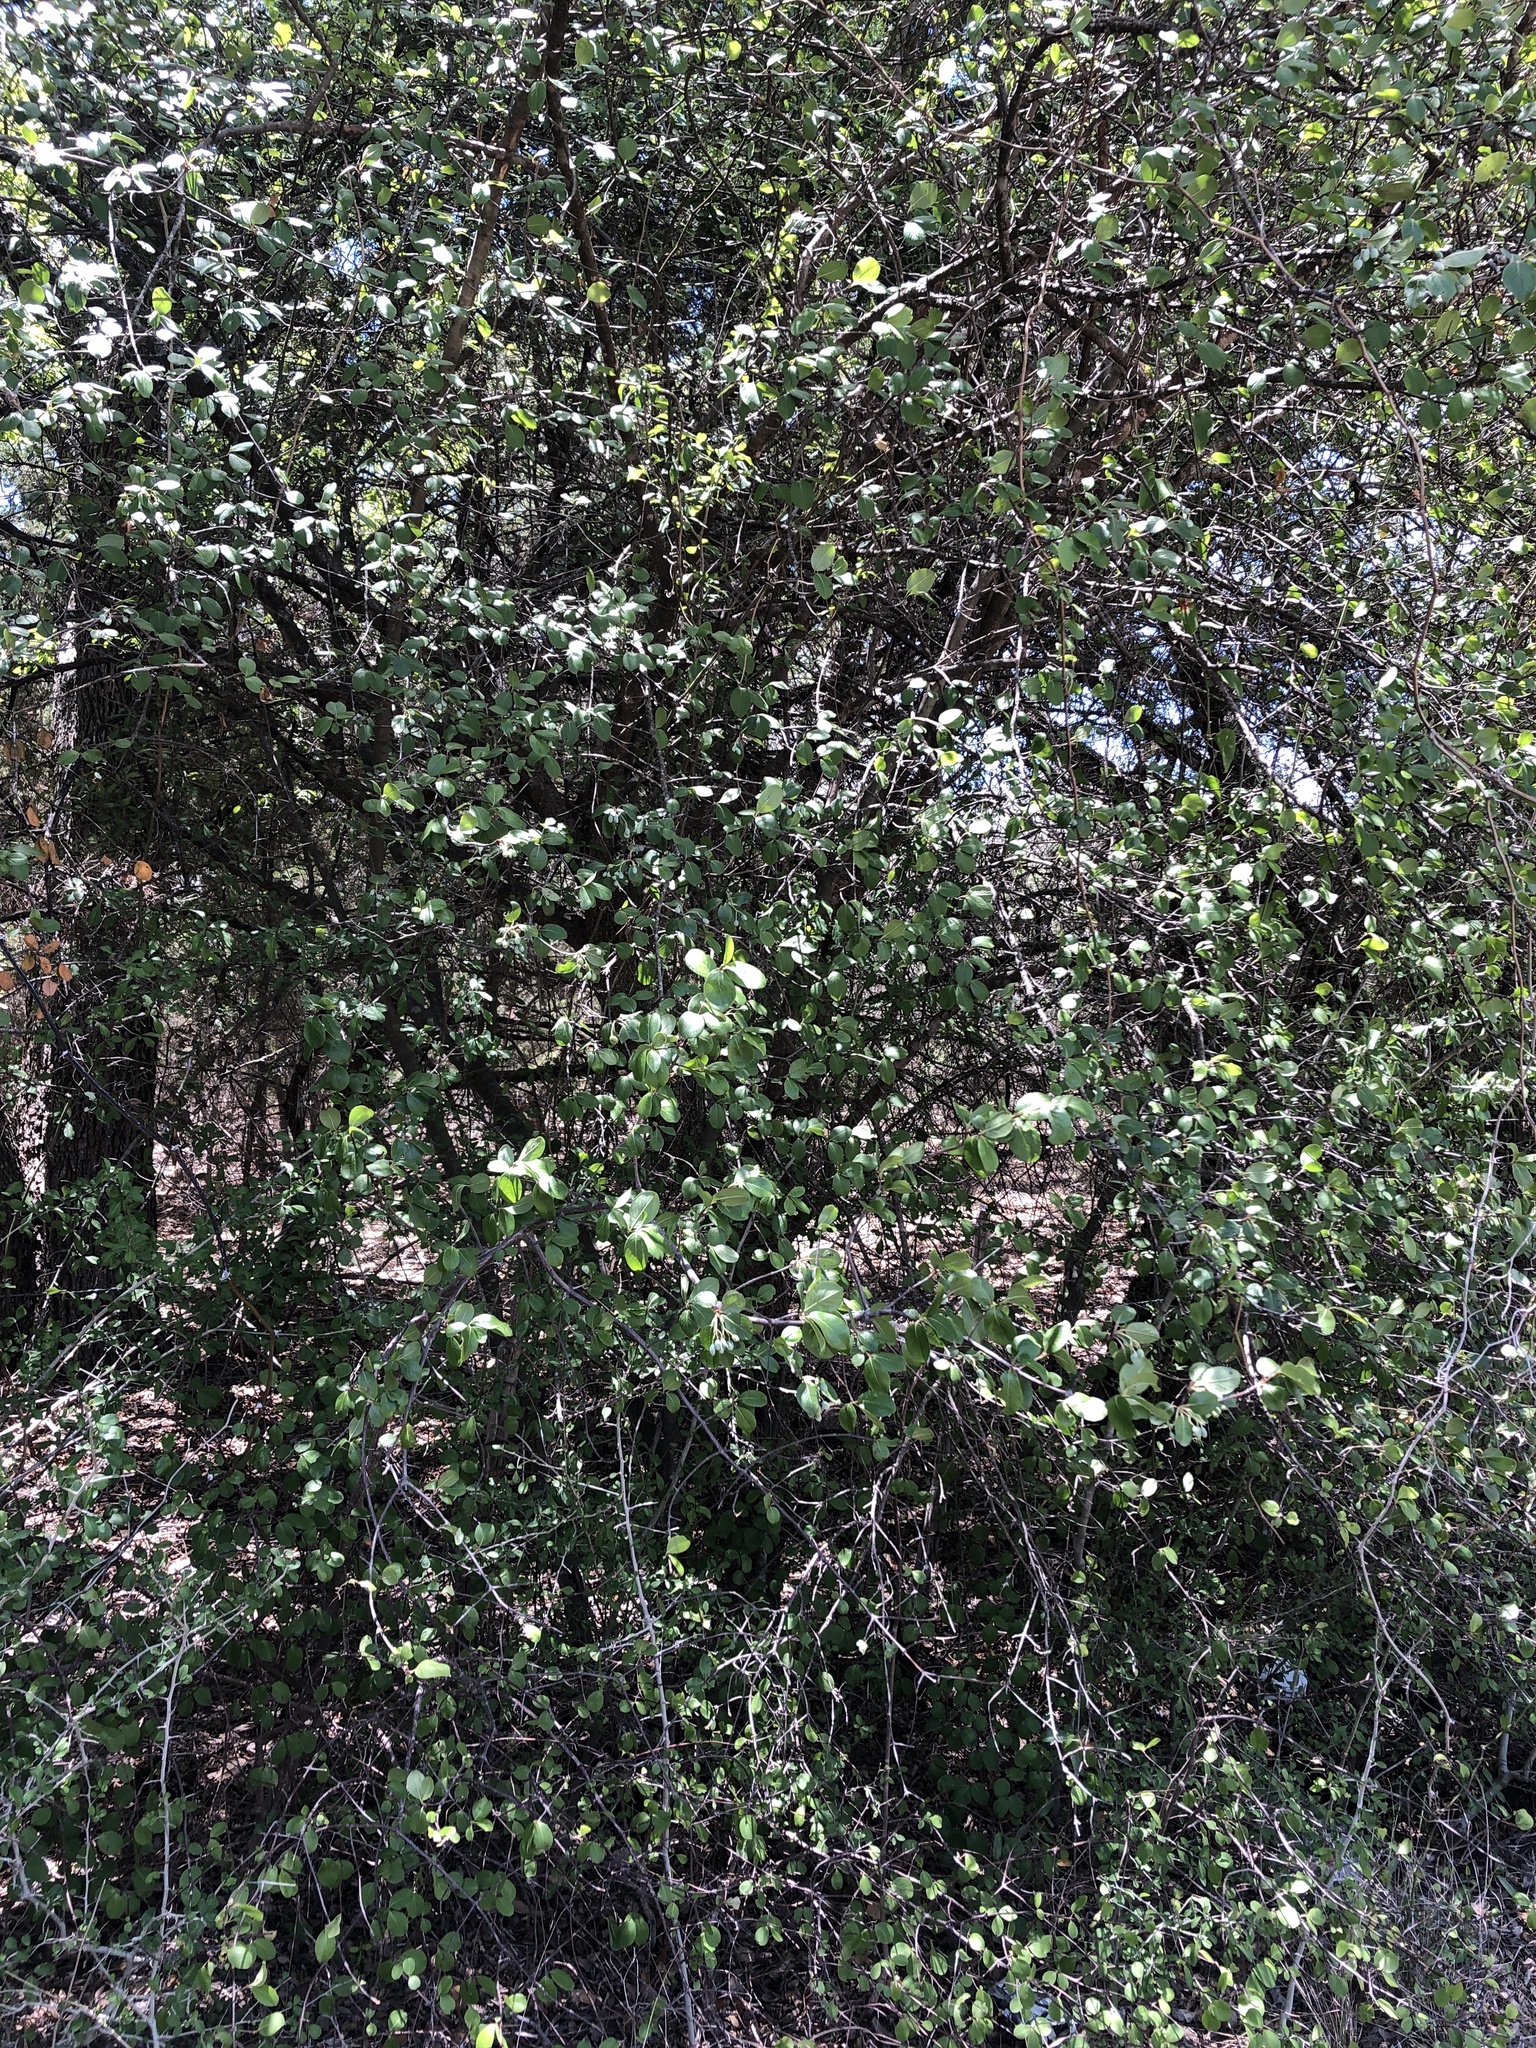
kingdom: Plantae
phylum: Tracheophyta
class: Magnoliopsida
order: Dipsacales
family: Viburnaceae
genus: Viburnum
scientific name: Viburnum rufidulum
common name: Blue haw
